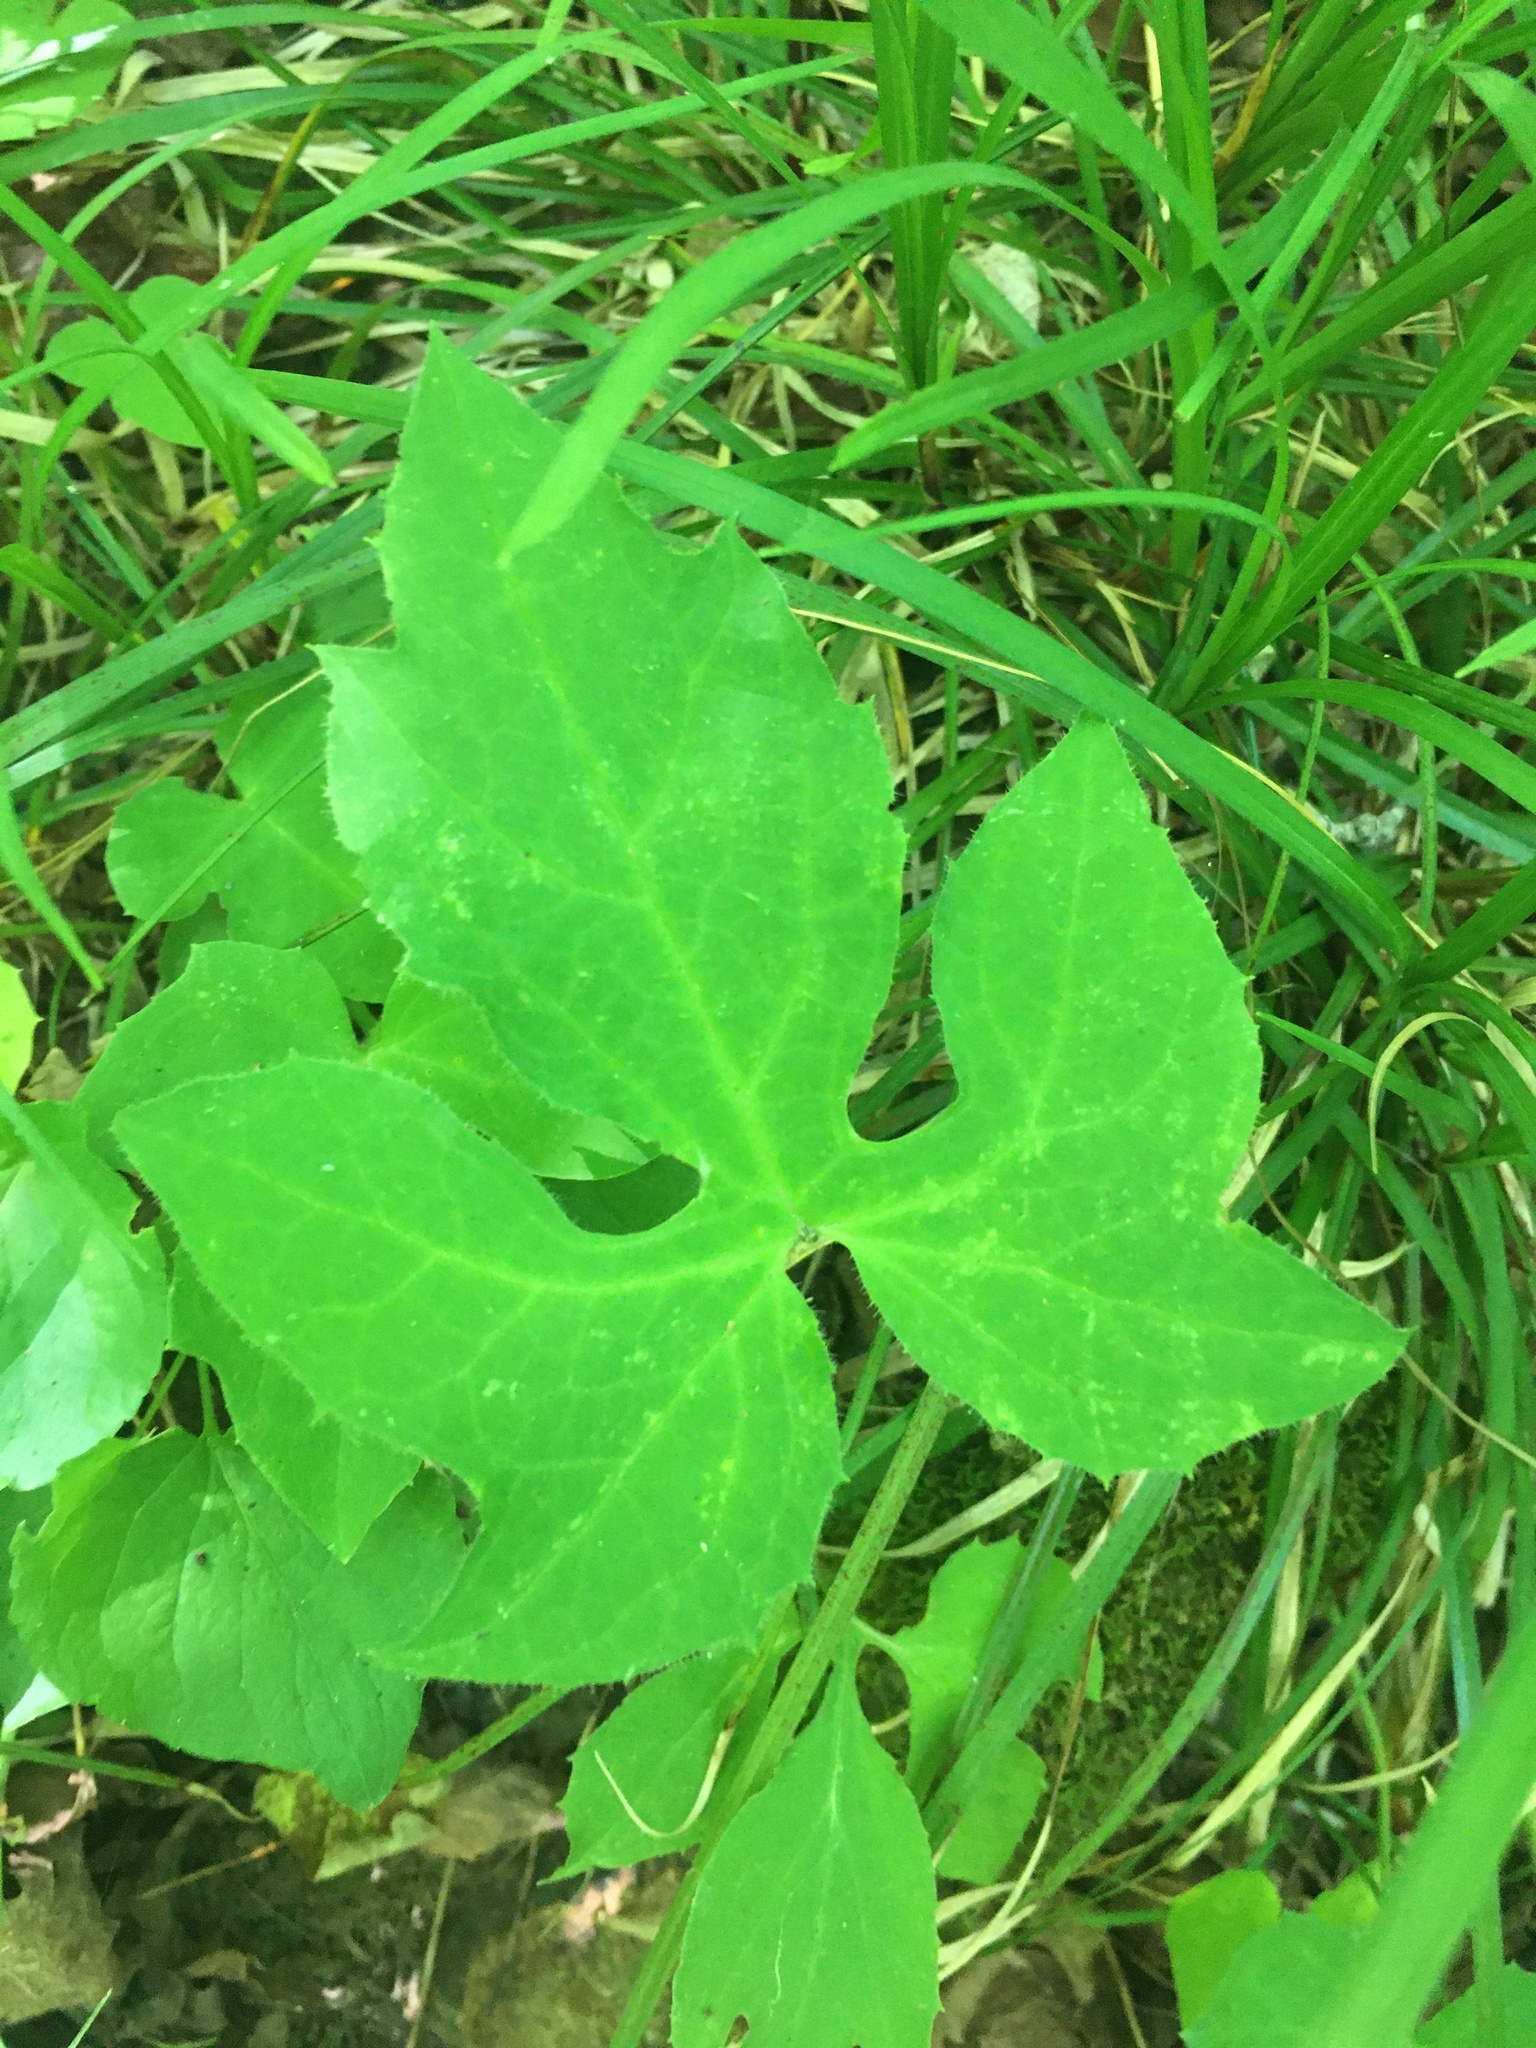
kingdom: Plantae
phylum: Tracheophyta
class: Magnoliopsida
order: Asterales
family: Asteraceae
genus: Nabalus
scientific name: Nabalus
